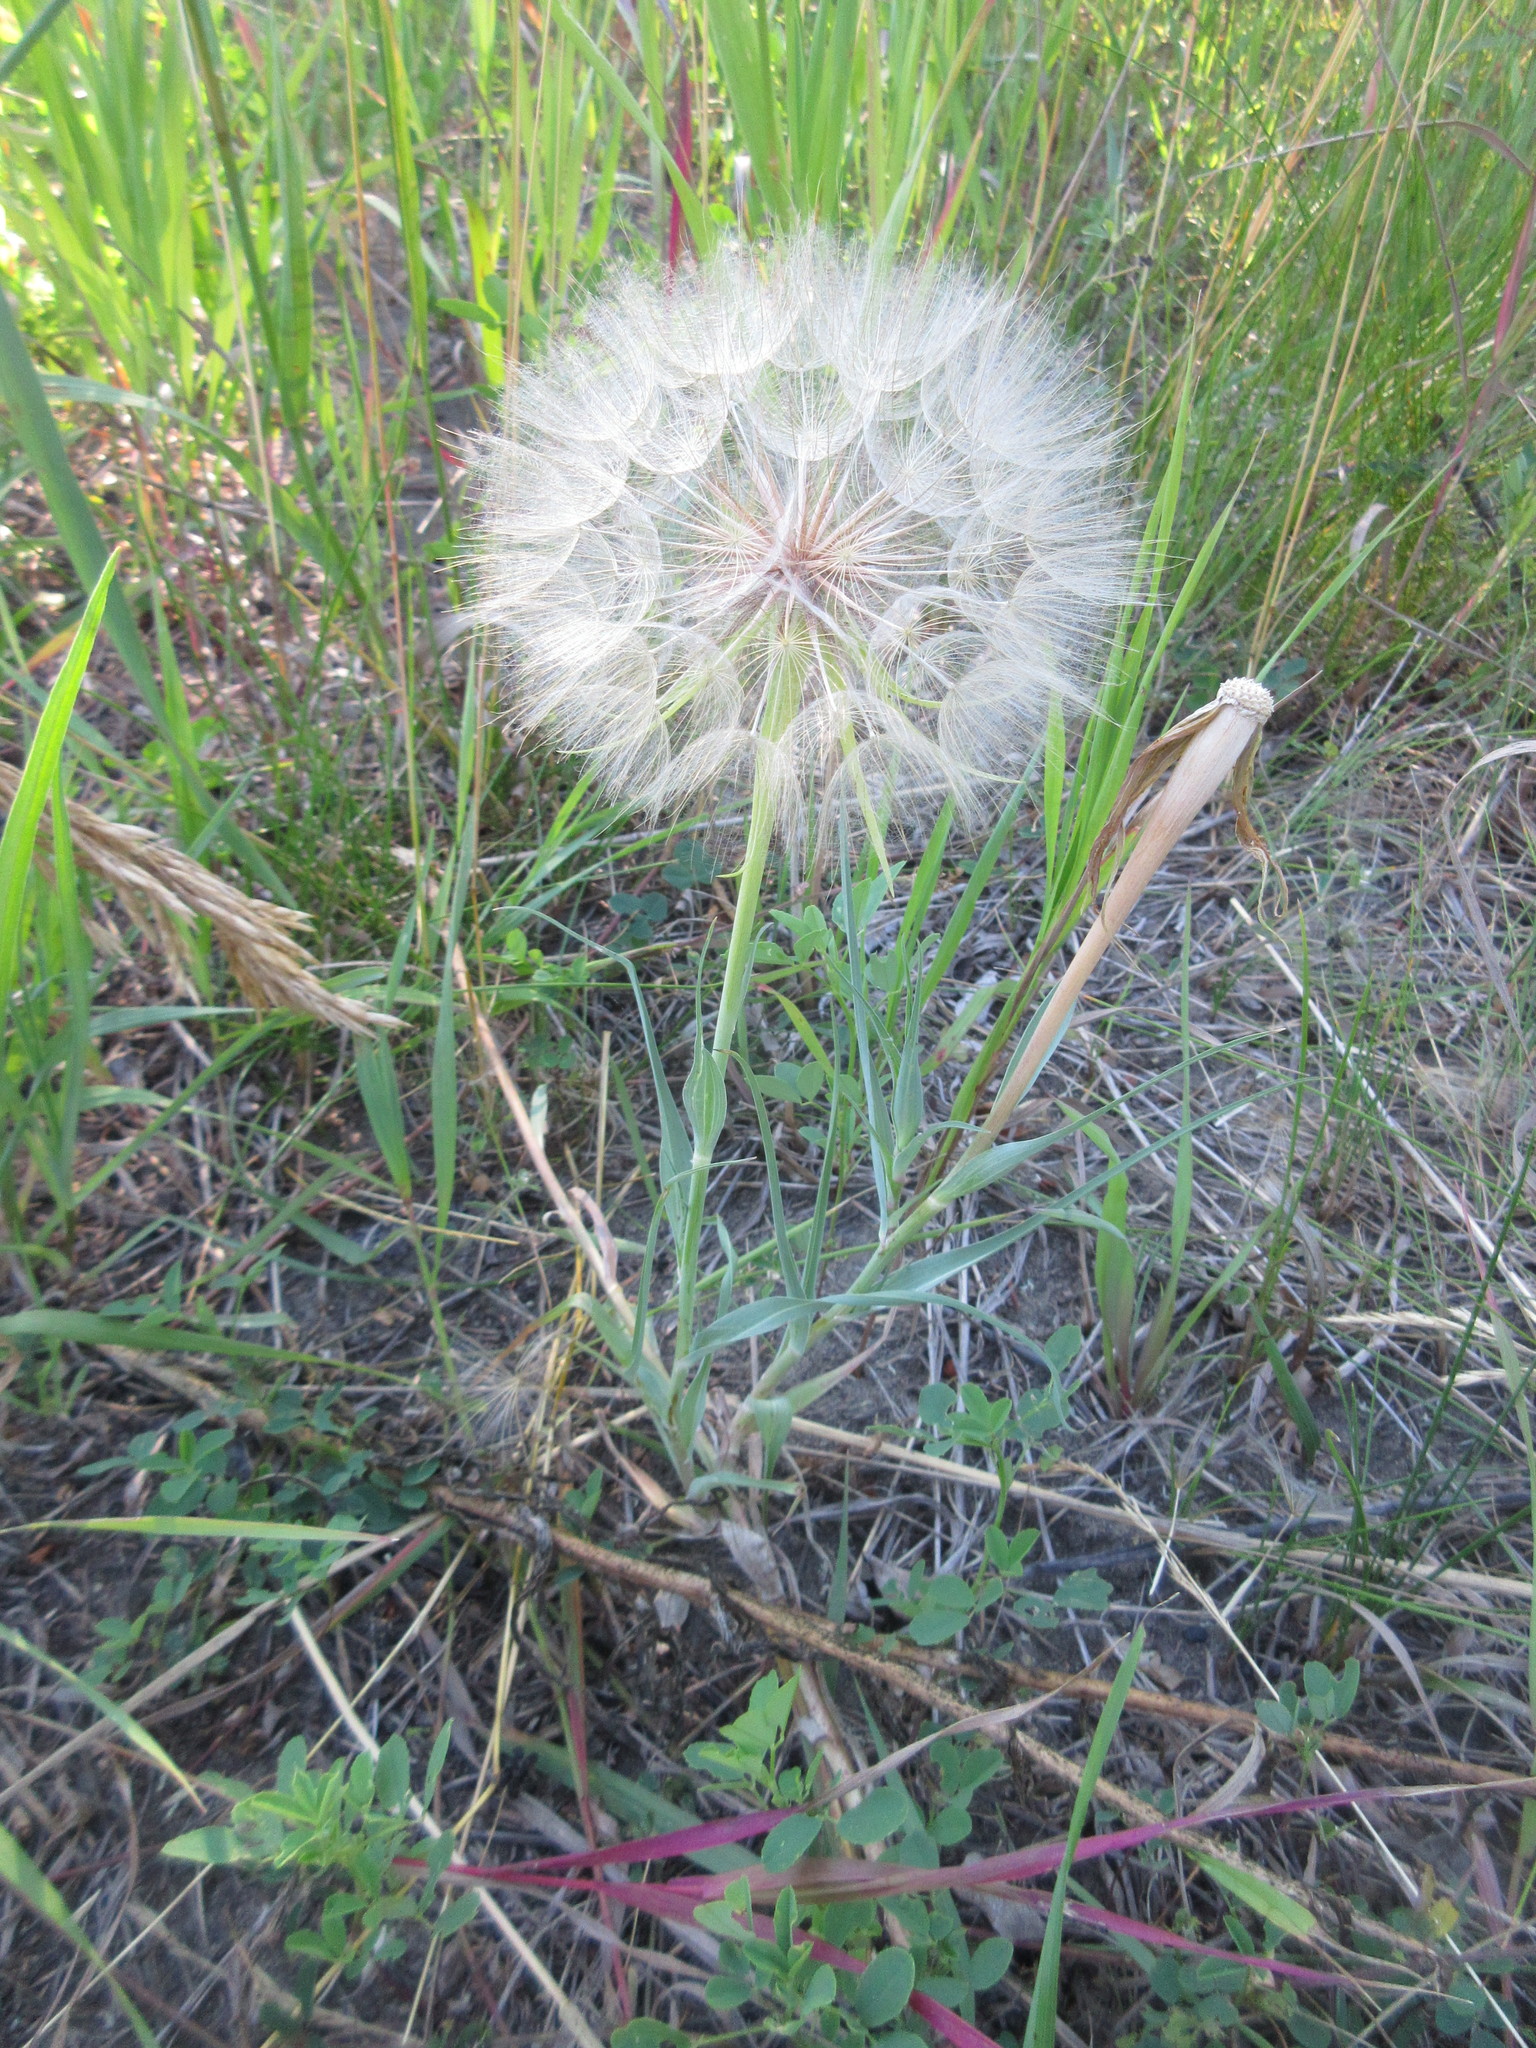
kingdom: Plantae
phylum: Tracheophyta
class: Magnoliopsida
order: Asterales
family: Asteraceae
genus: Tragopogon
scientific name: Tragopogon dubius
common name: Yellow salsify
